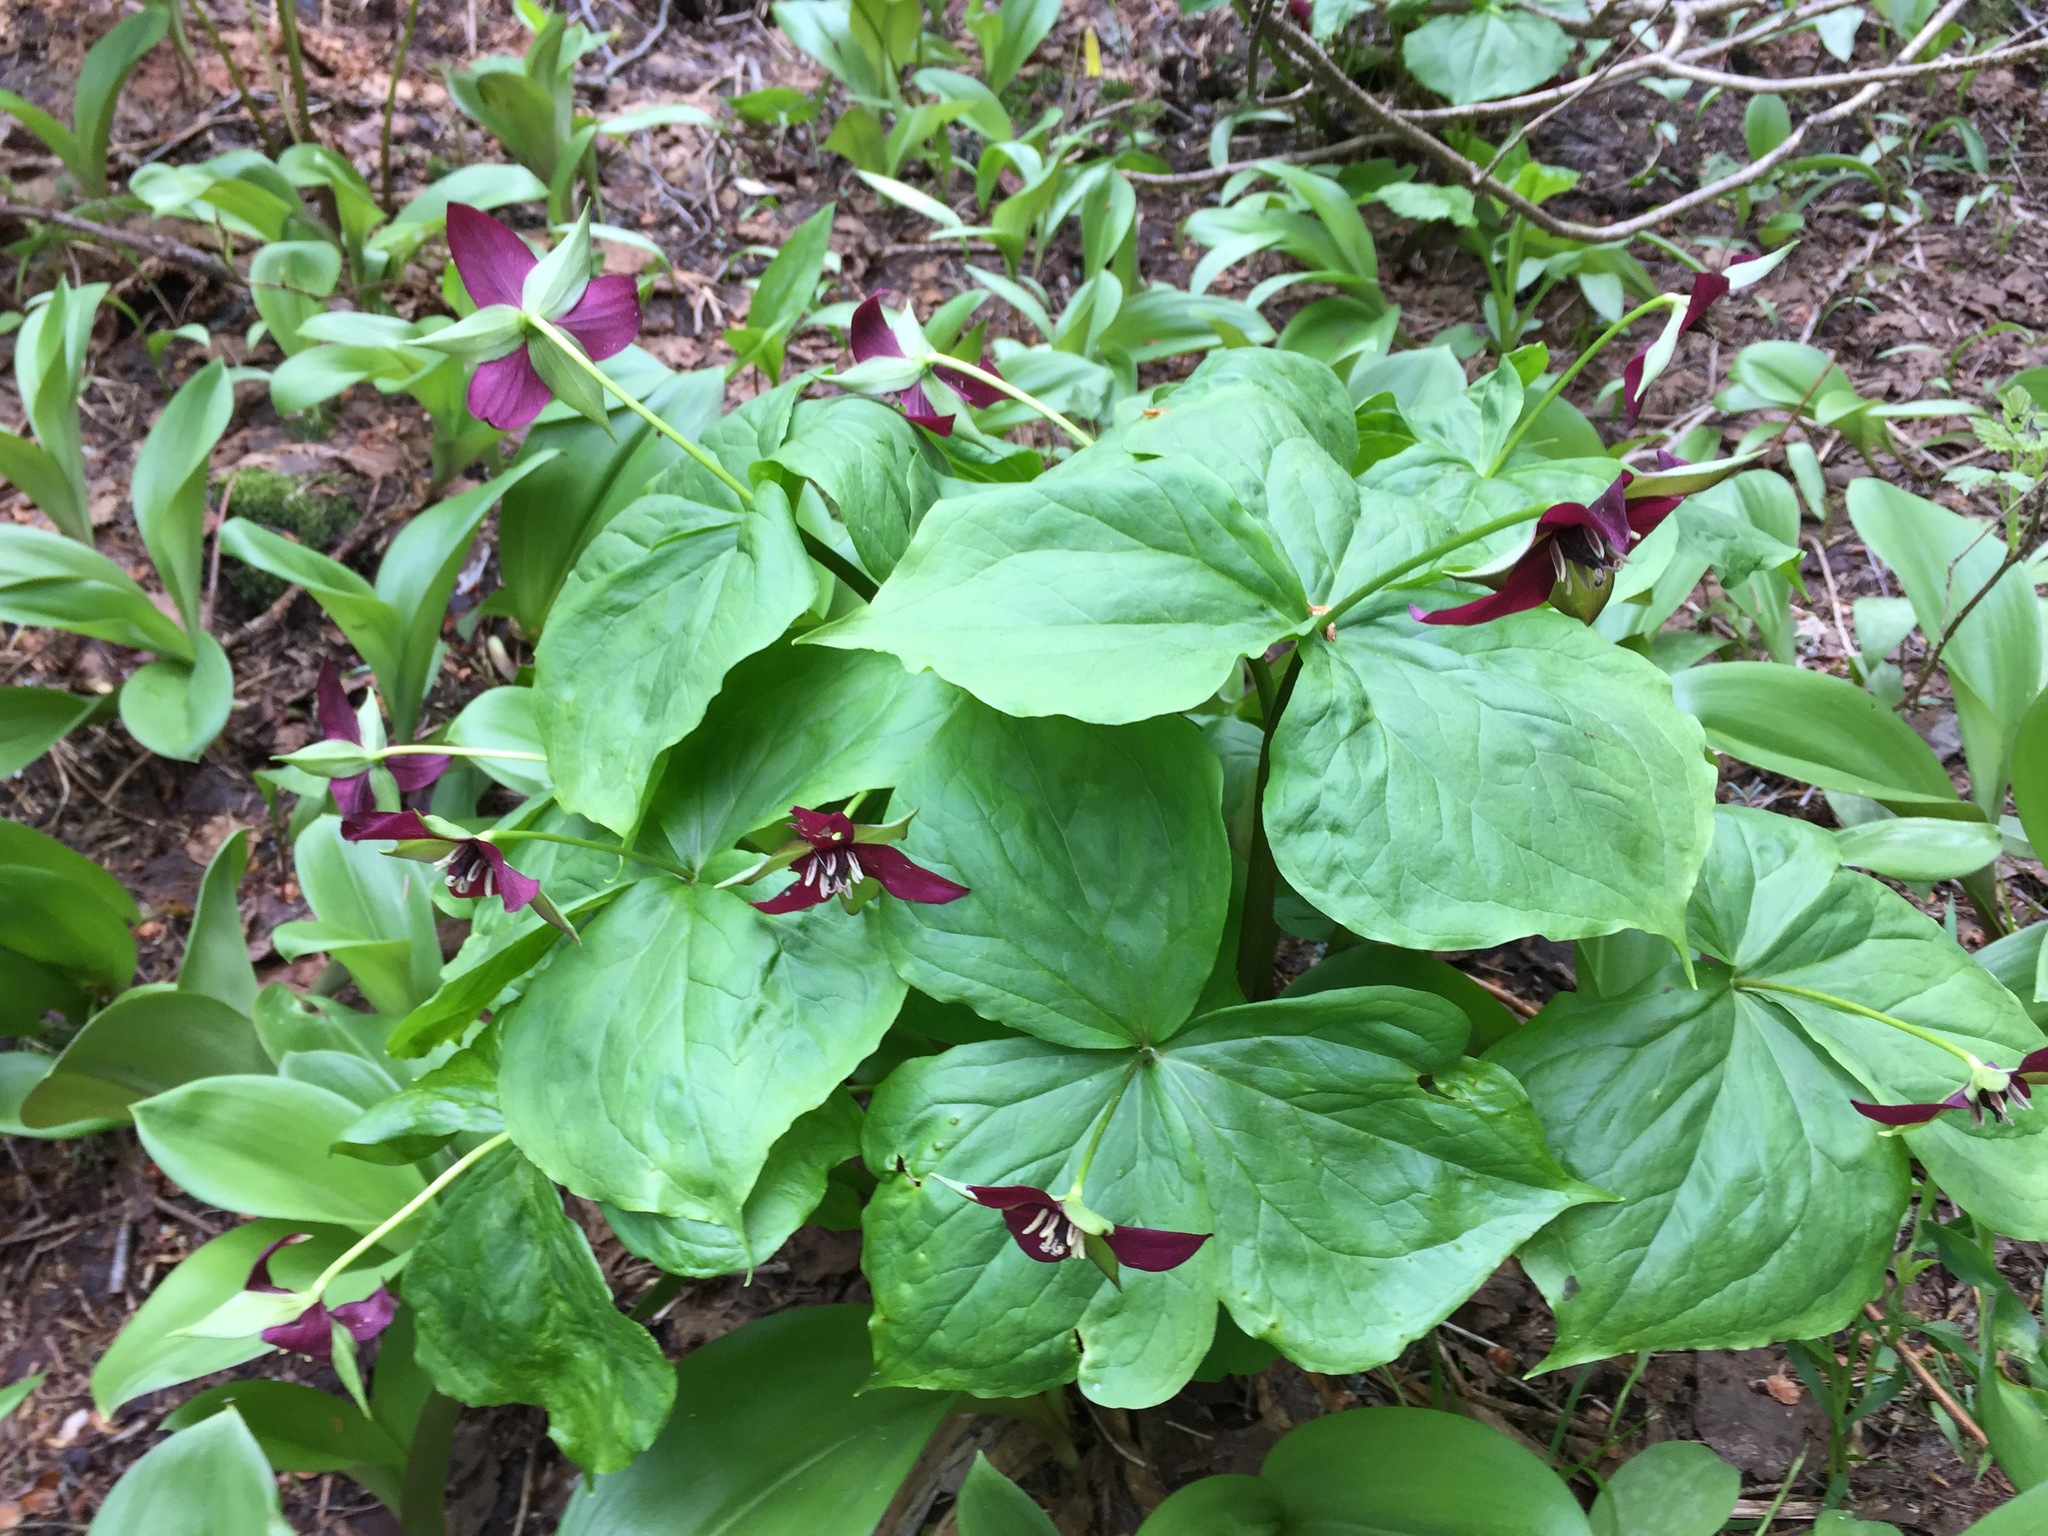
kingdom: Plantae
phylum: Tracheophyta
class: Liliopsida
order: Liliales
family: Melanthiaceae
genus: Trillium
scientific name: Trillium erectum
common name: Purple trillium
